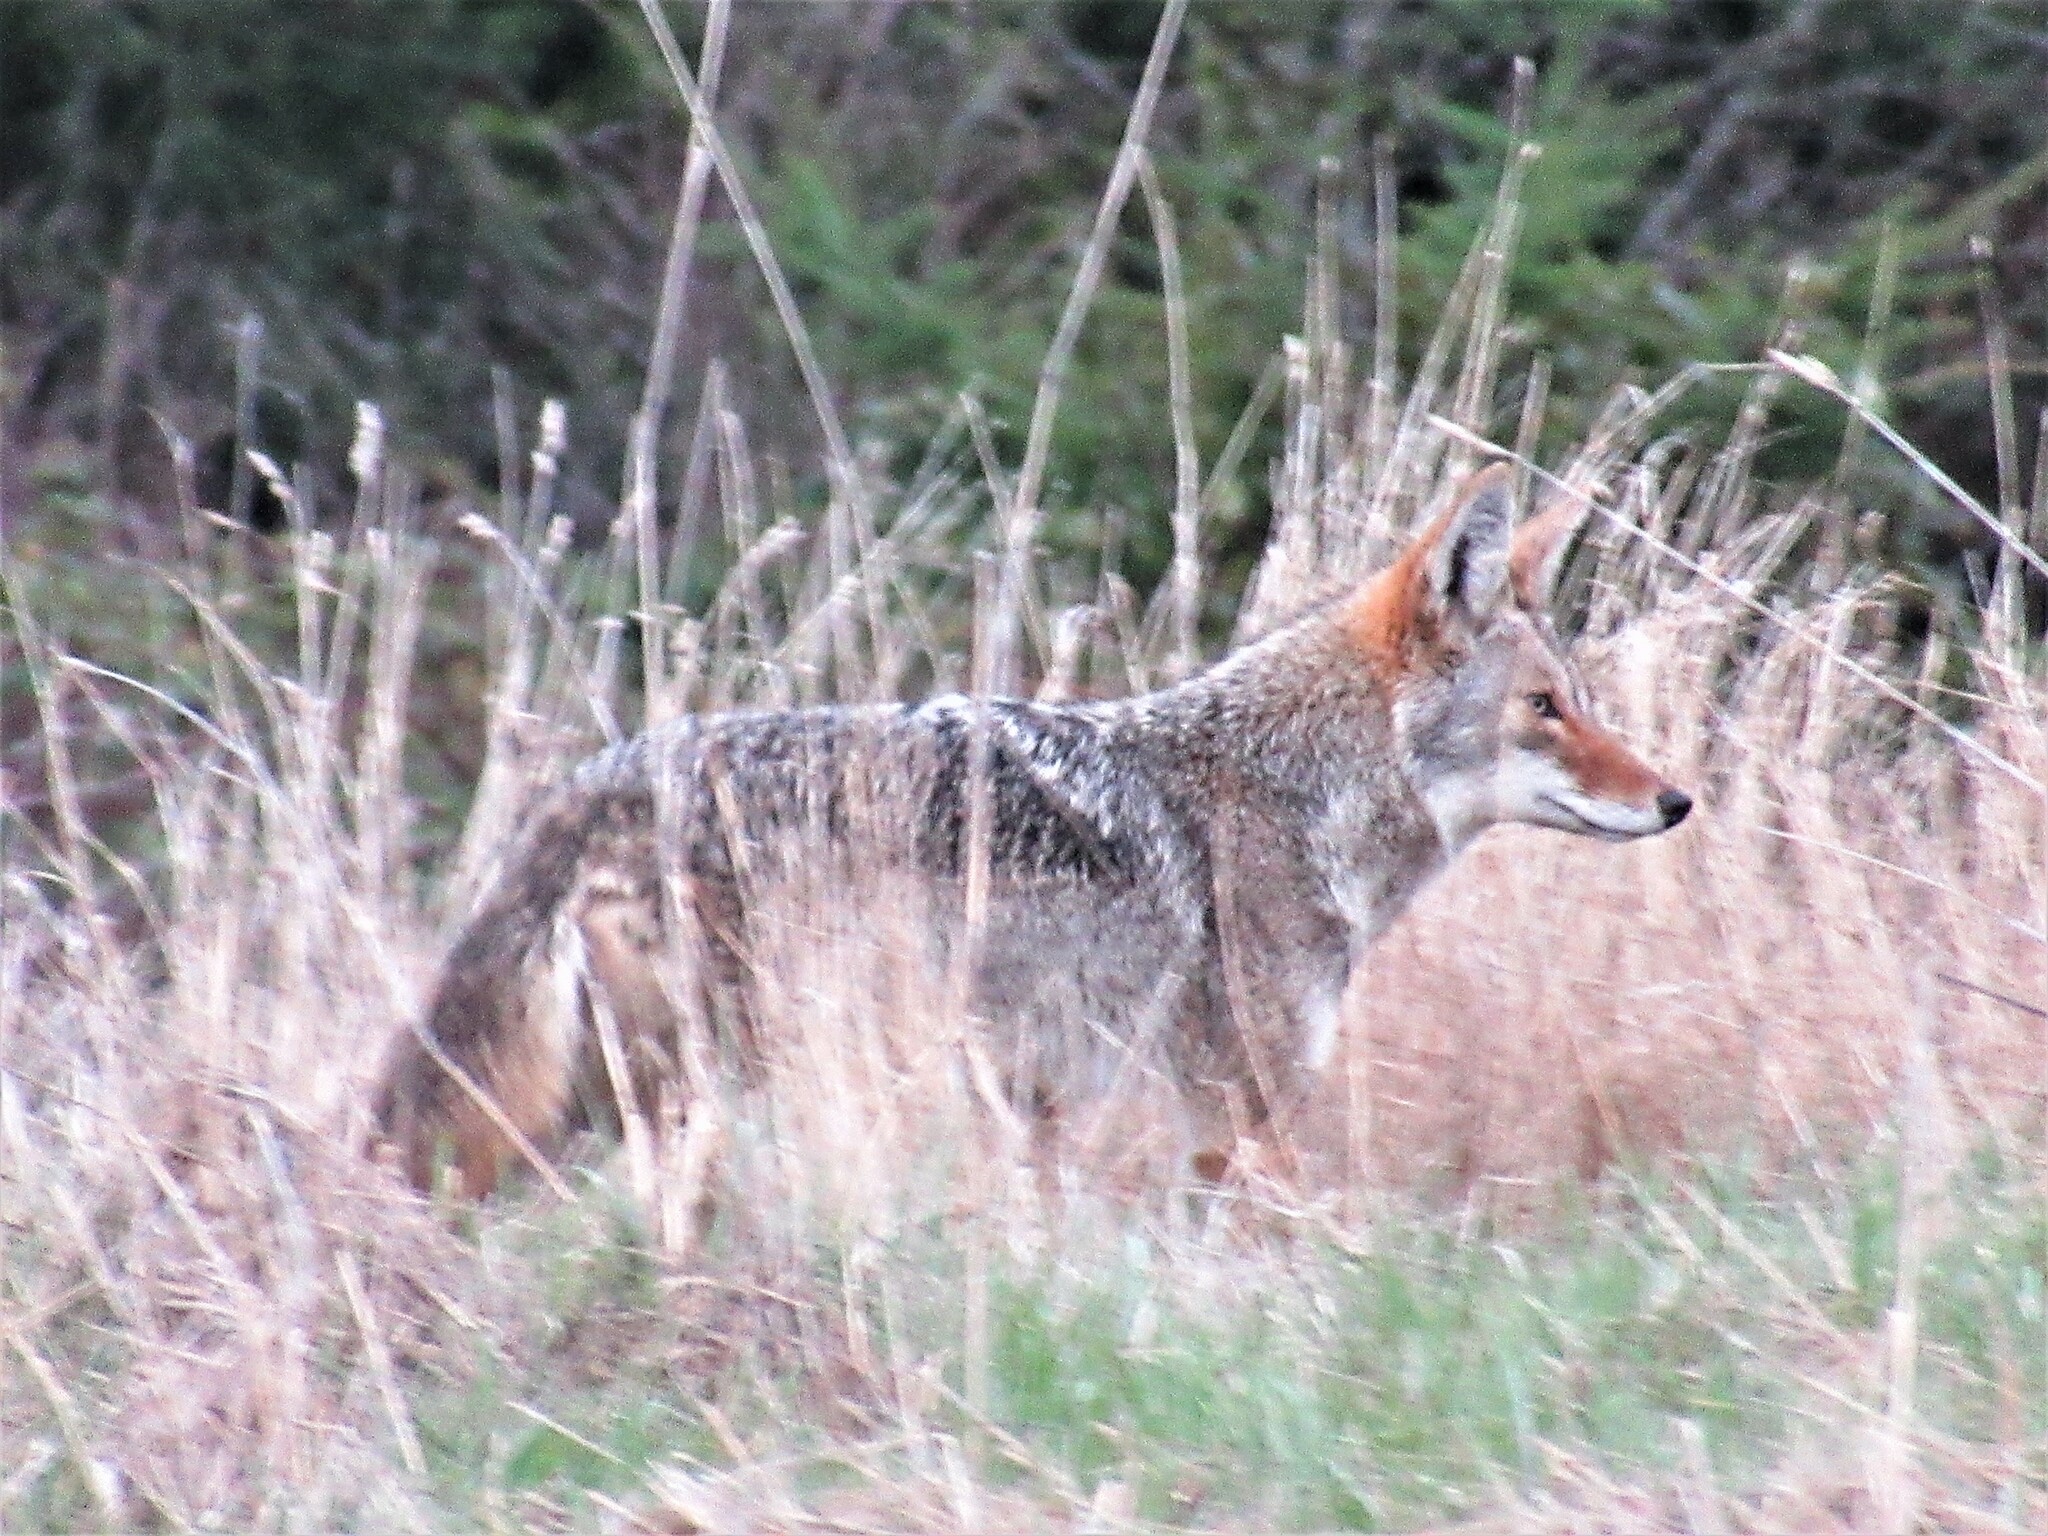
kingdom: Animalia
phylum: Chordata
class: Mammalia
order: Carnivora
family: Canidae
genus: Canis
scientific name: Canis latrans
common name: Coyote
